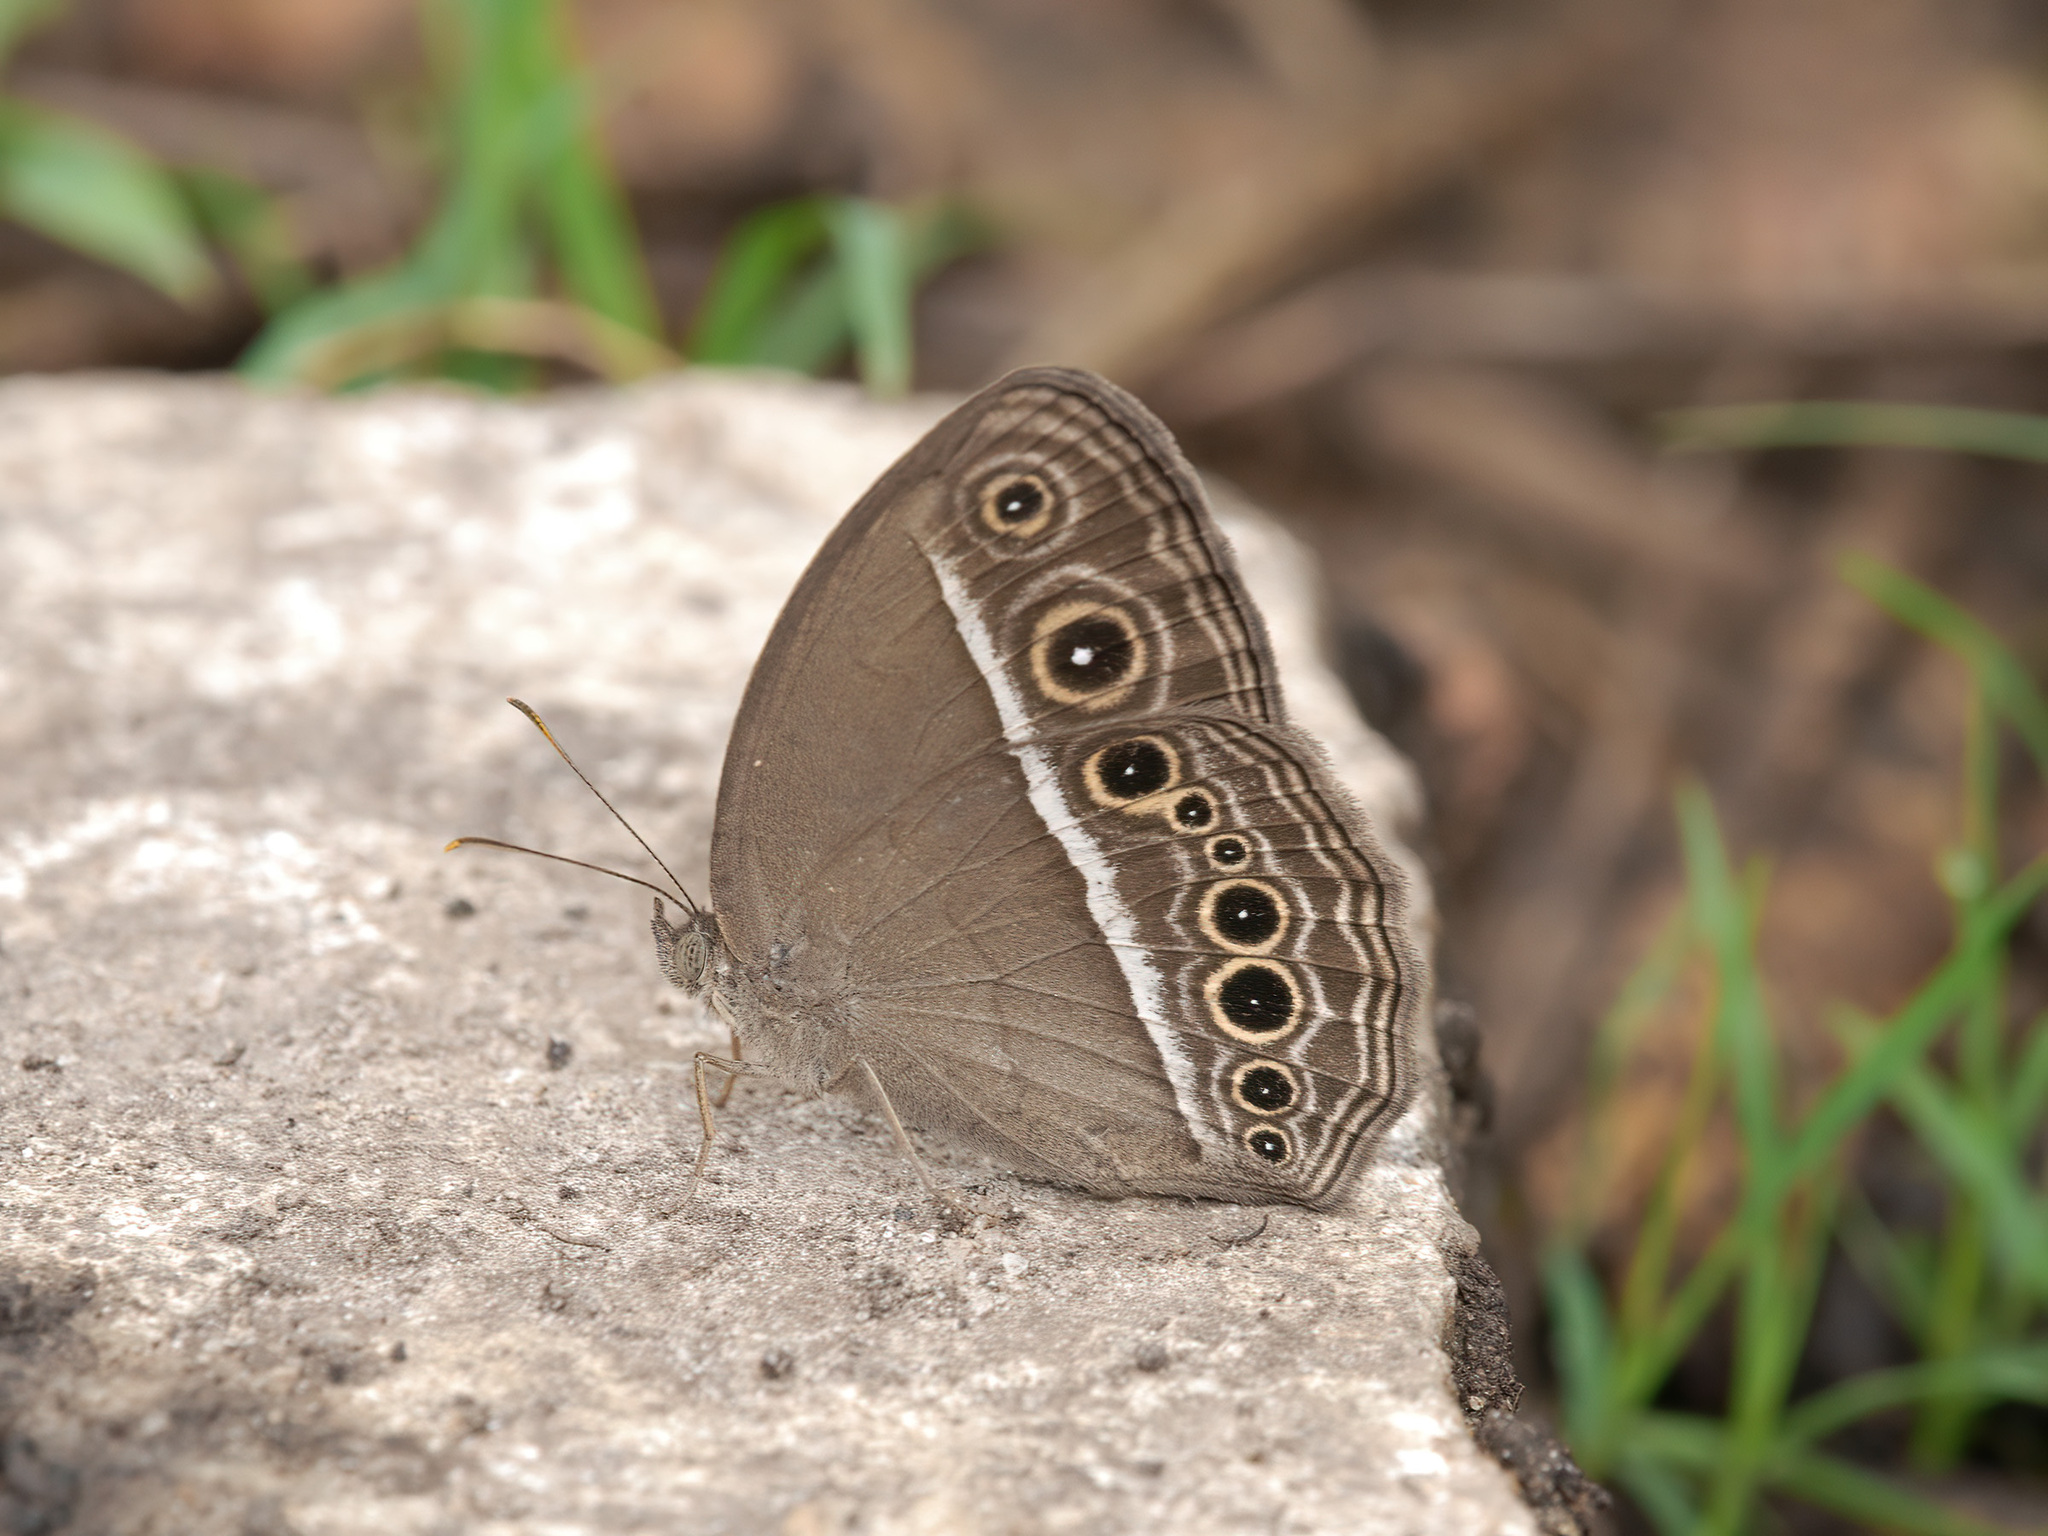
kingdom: Animalia
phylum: Arthropoda
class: Insecta
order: Lepidoptera
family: Nymphalidae
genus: Mycalesis
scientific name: Mycalesis mineus
